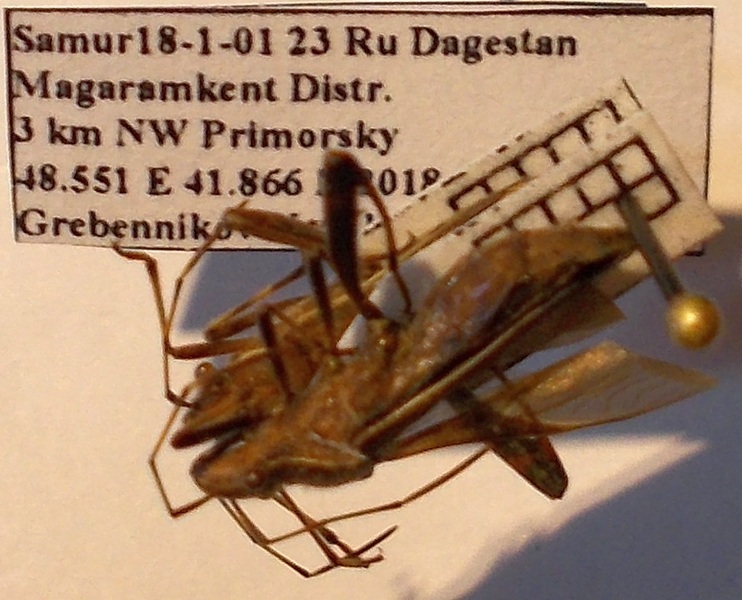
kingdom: Animalia
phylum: Arthropoda
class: Insecta
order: Hemiptera
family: Alydidae
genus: Camptopus
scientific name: Camptopus lateralis
